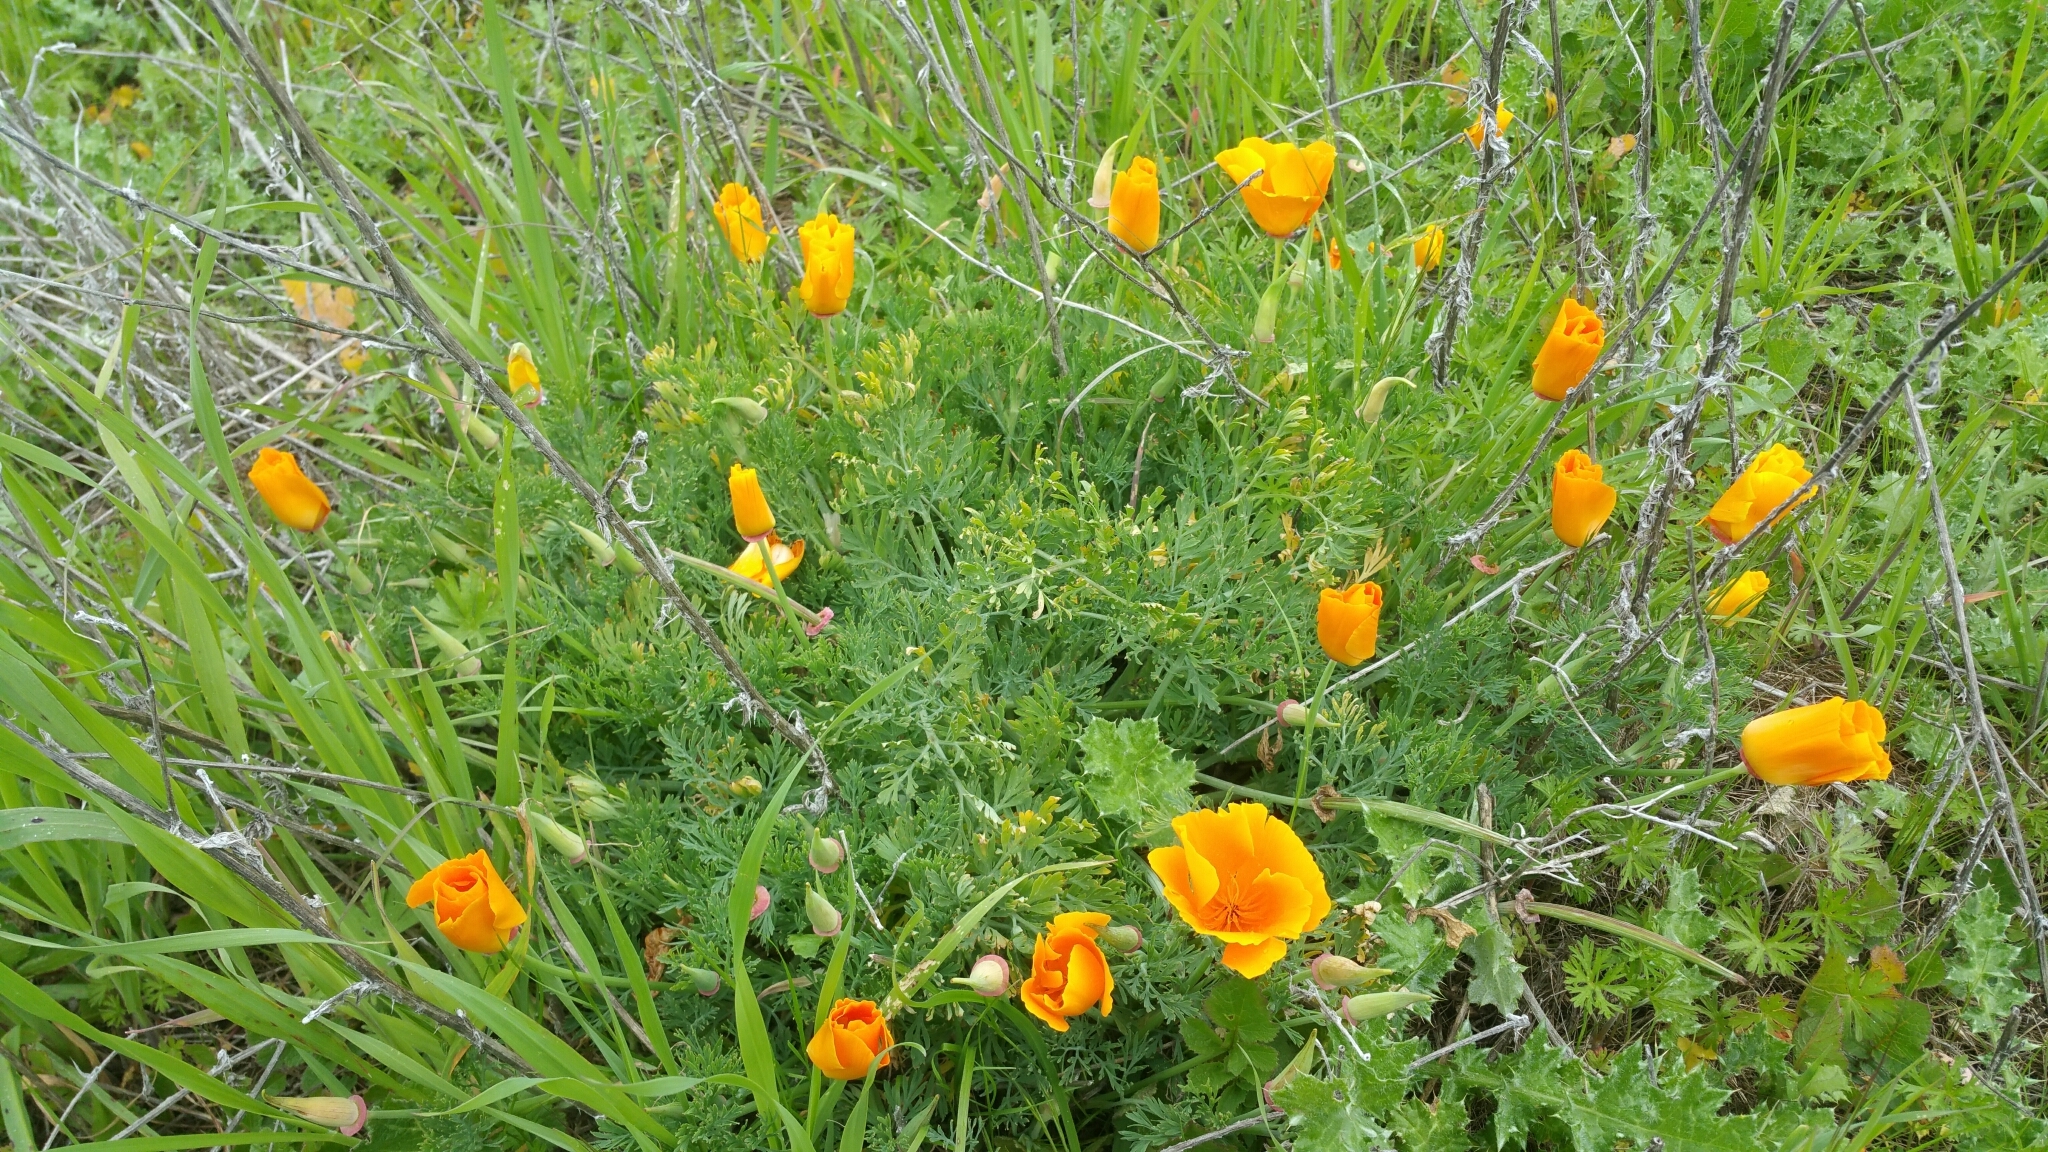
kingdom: Plantae
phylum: Tracheophyta
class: Magnoliopsida
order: Ranunculales
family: Papaveraceae
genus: Eschscholzia
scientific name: Eschscholzia californica
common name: California poppy
